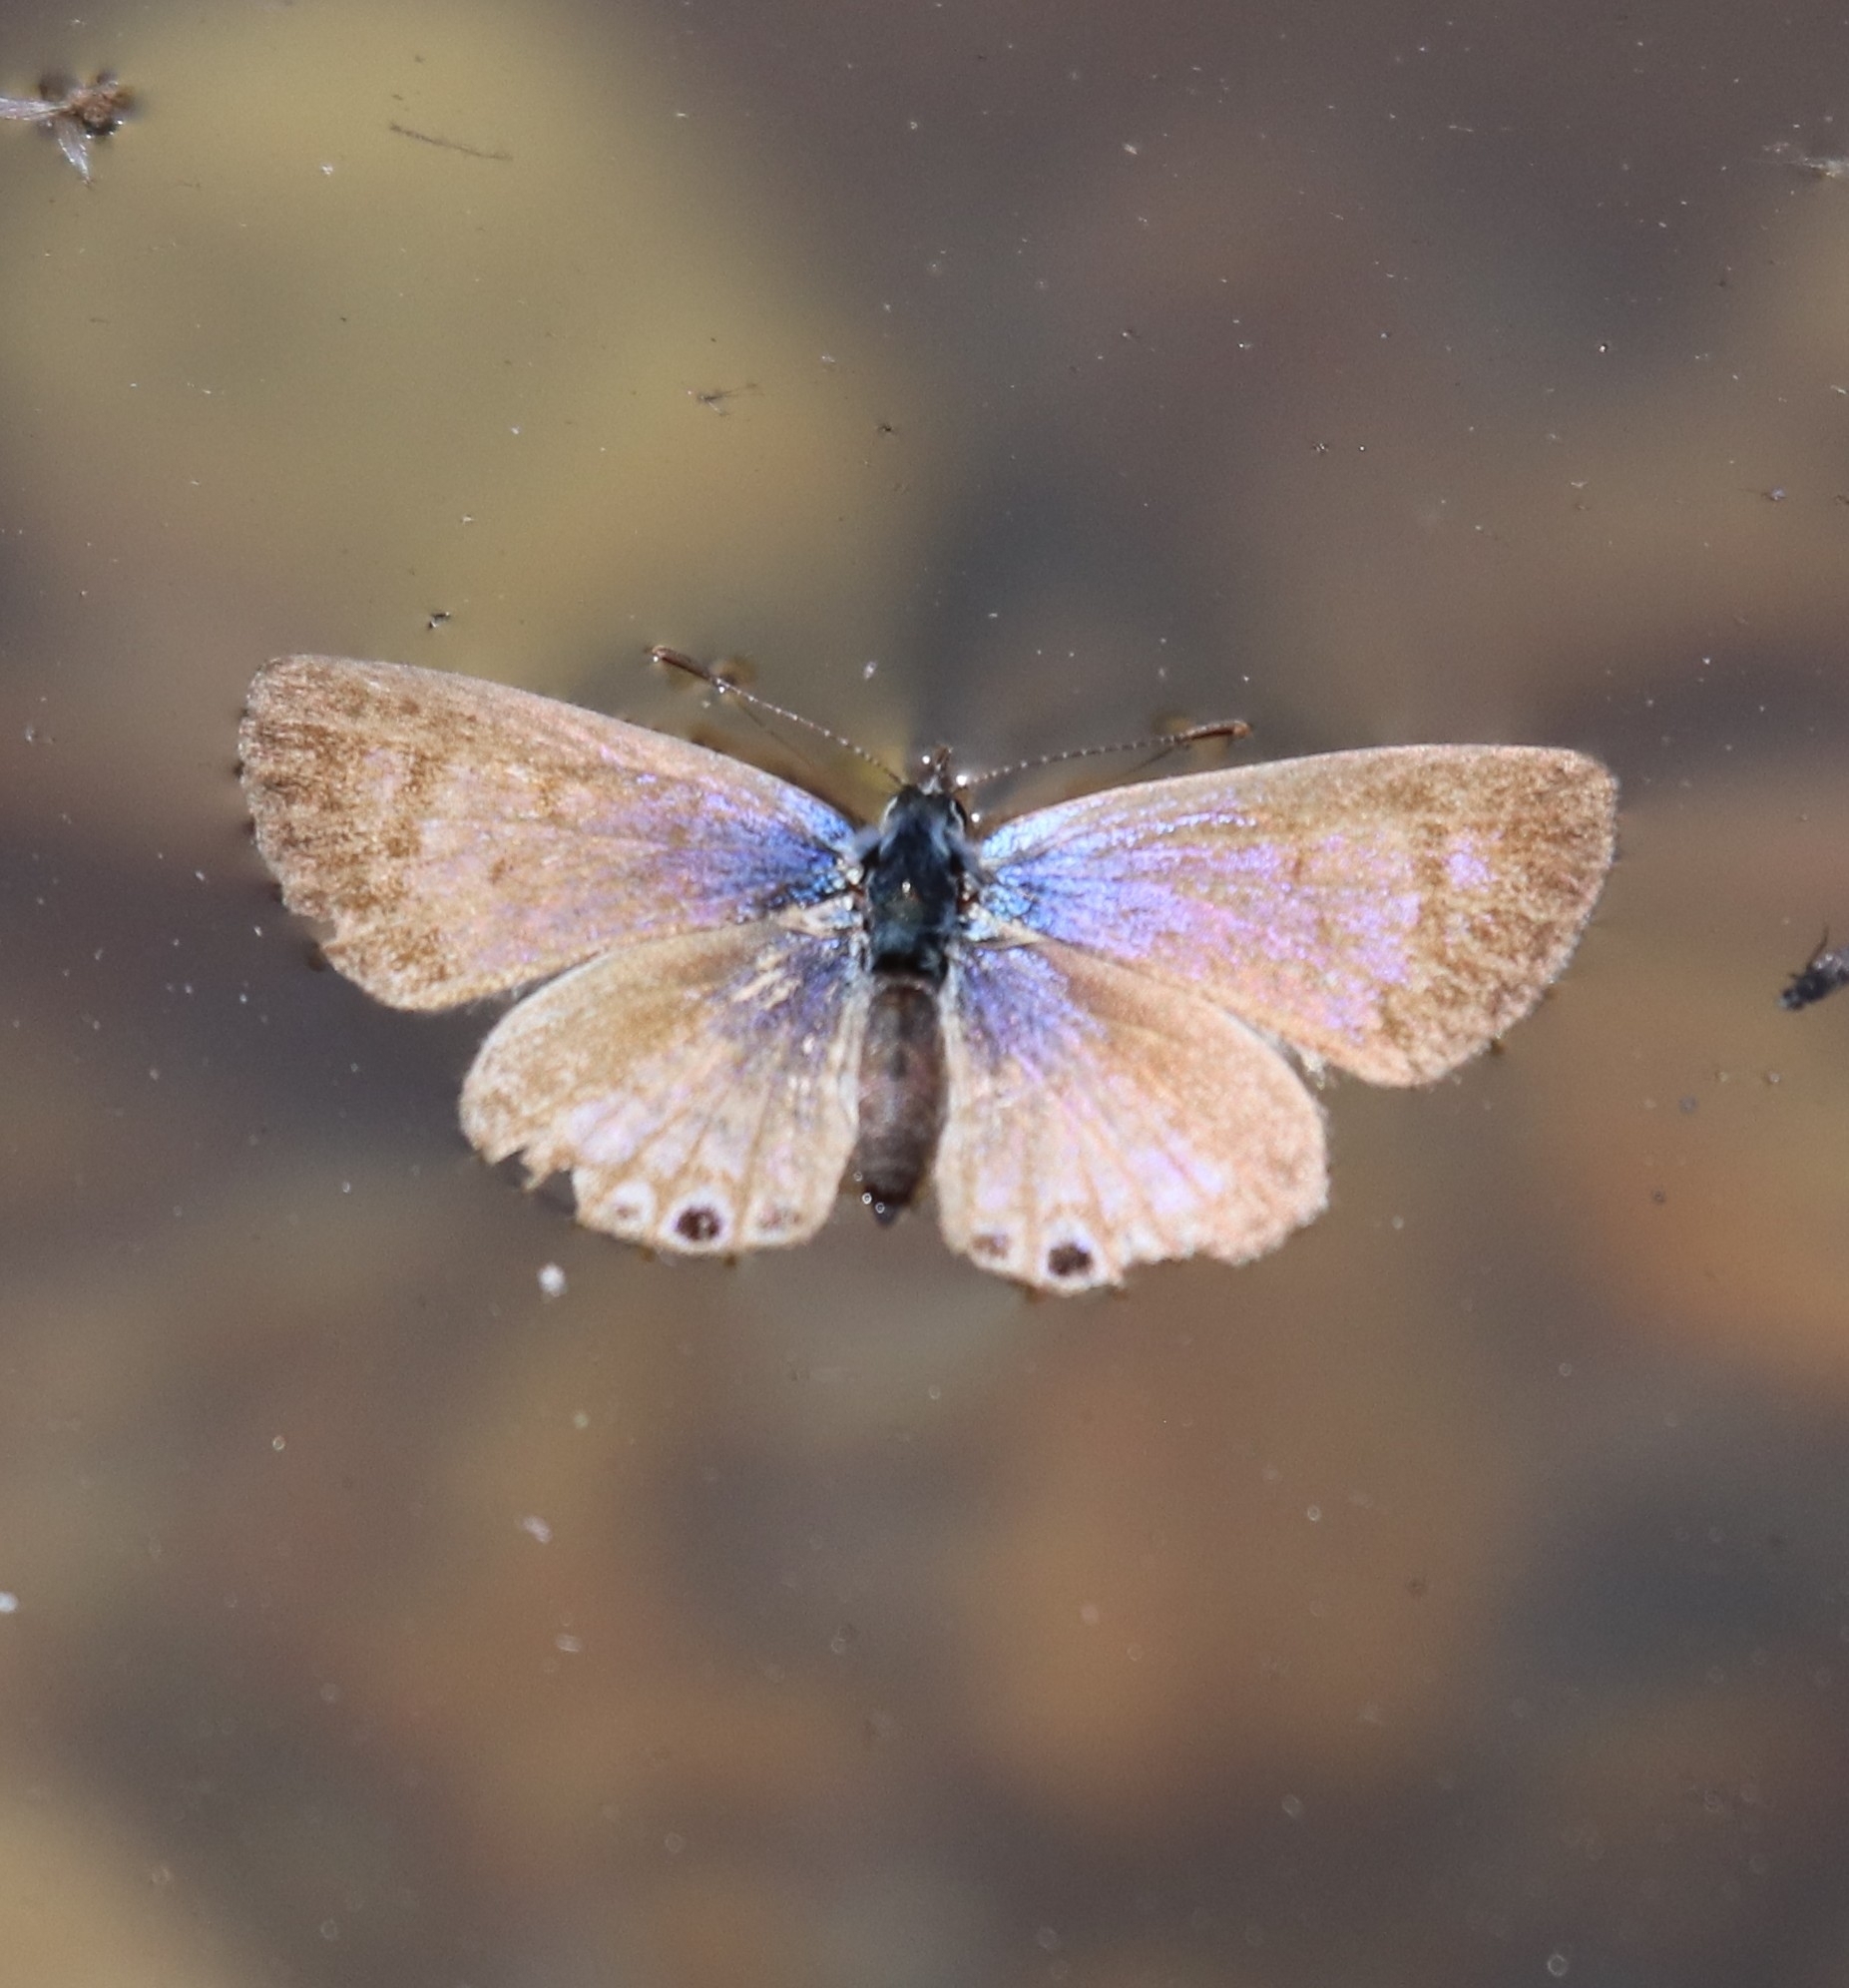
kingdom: Animalia
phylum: Arthropoda
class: Insecta
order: Lepidoptera
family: Lycaenidae
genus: Leptotes
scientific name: Leptotes marina
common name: Marine blue
